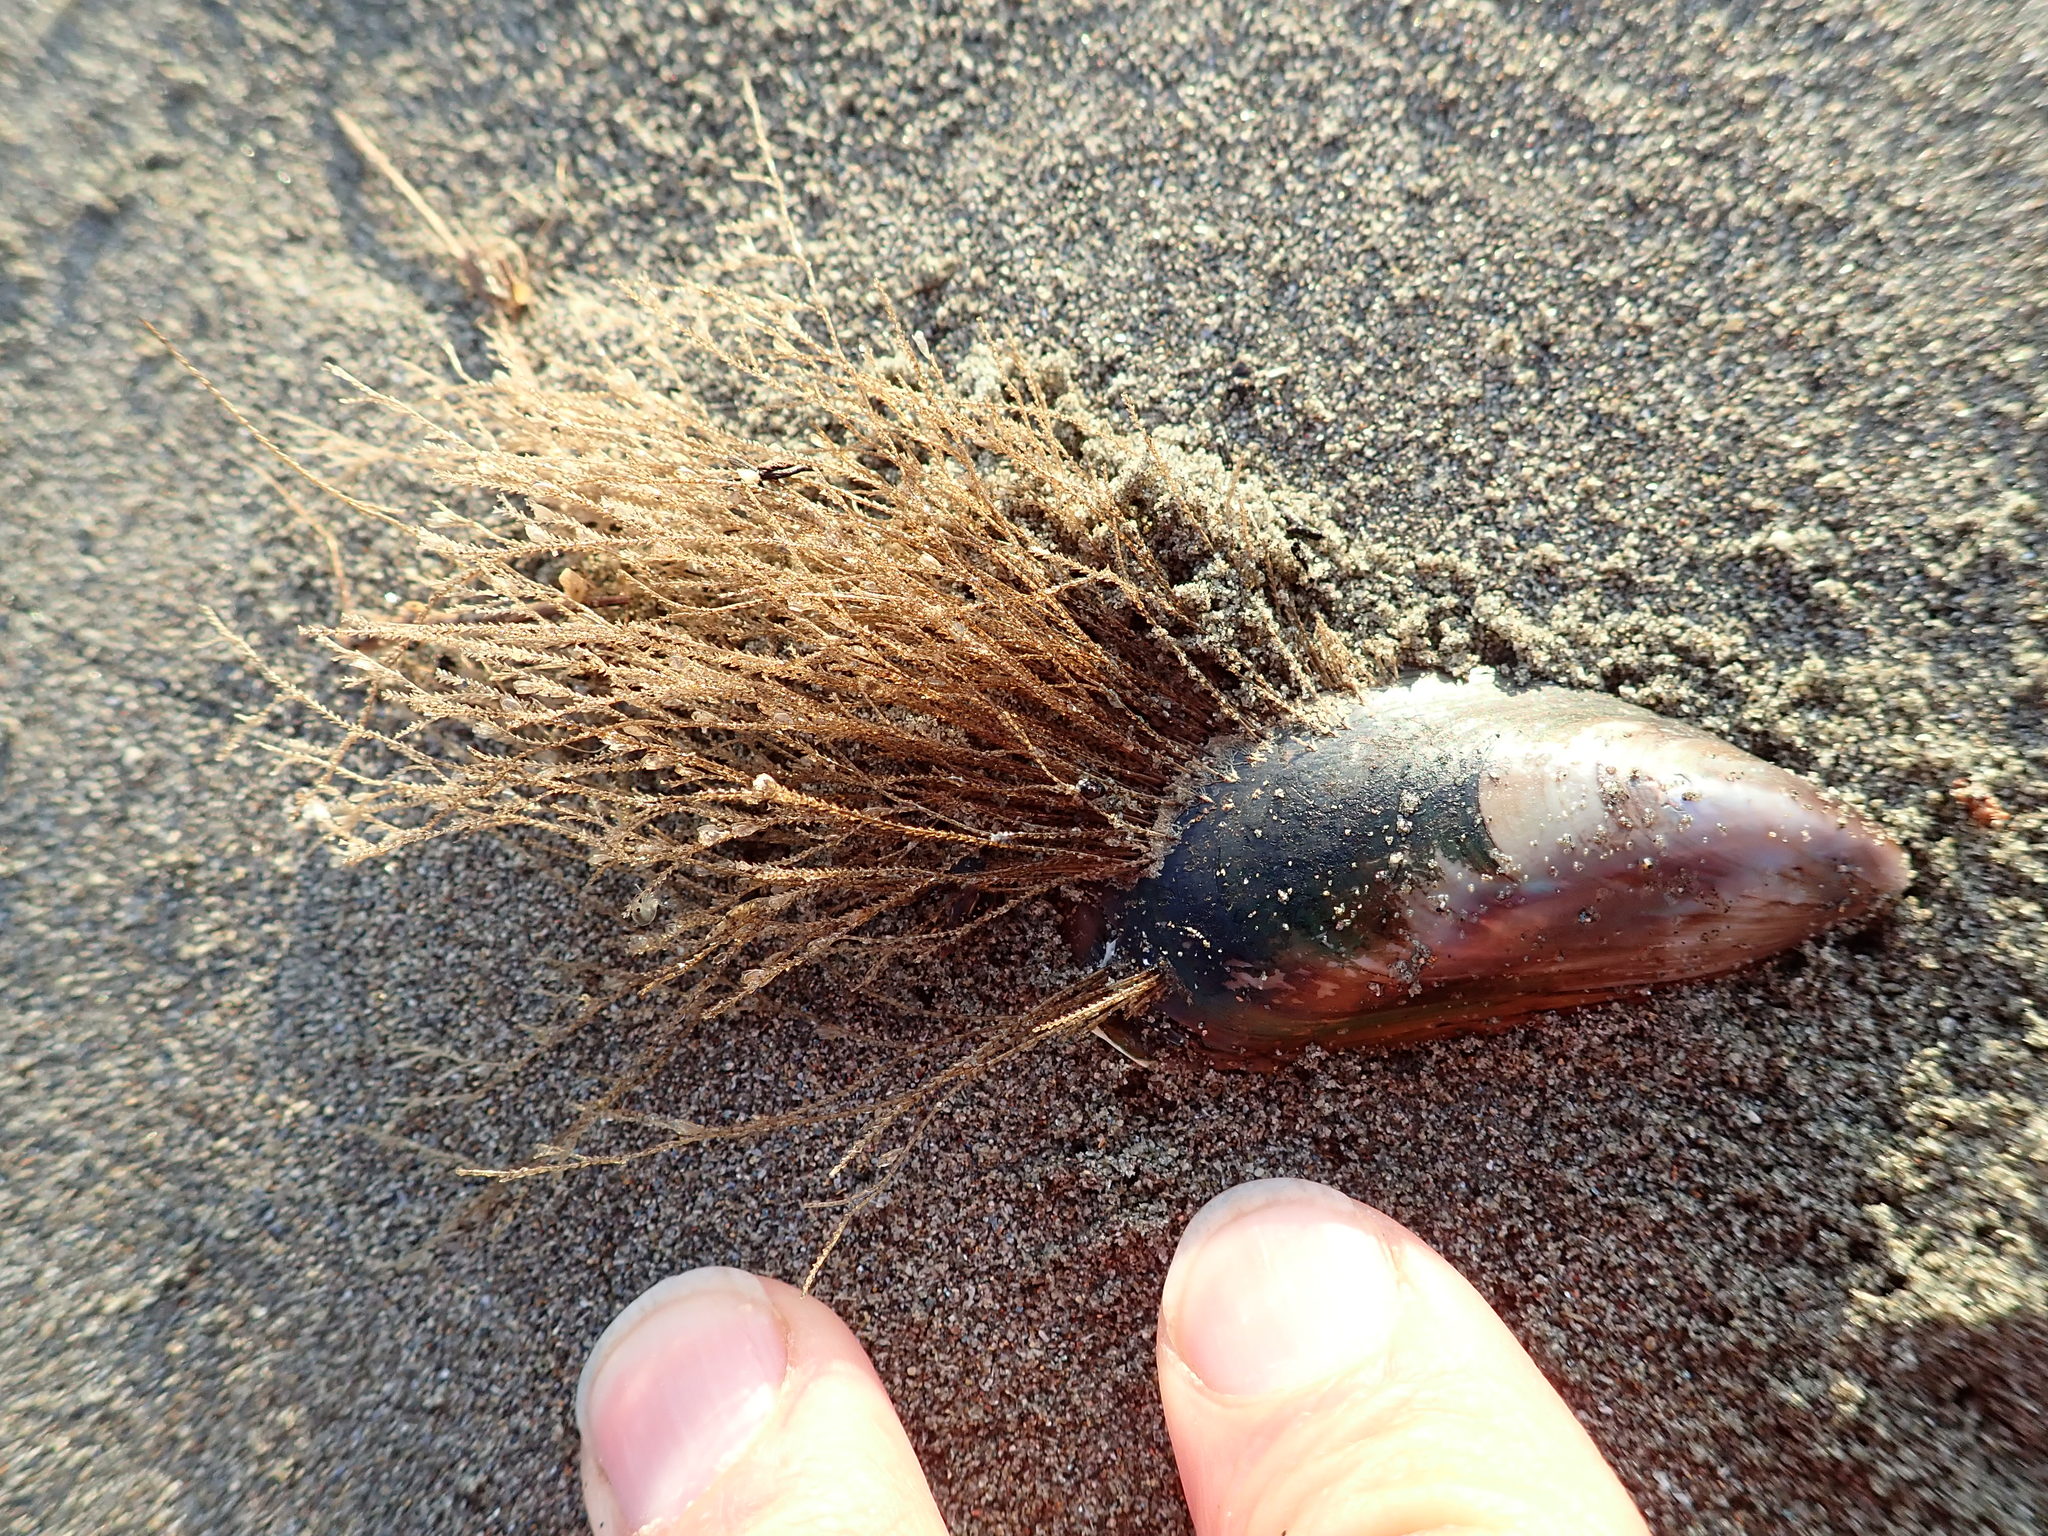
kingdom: Animalia
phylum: Mollusca
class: Bivalvia
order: Mytilida
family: Mytilidae
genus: Perna
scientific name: Perna canaliculus
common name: New zealand greenshelltm
